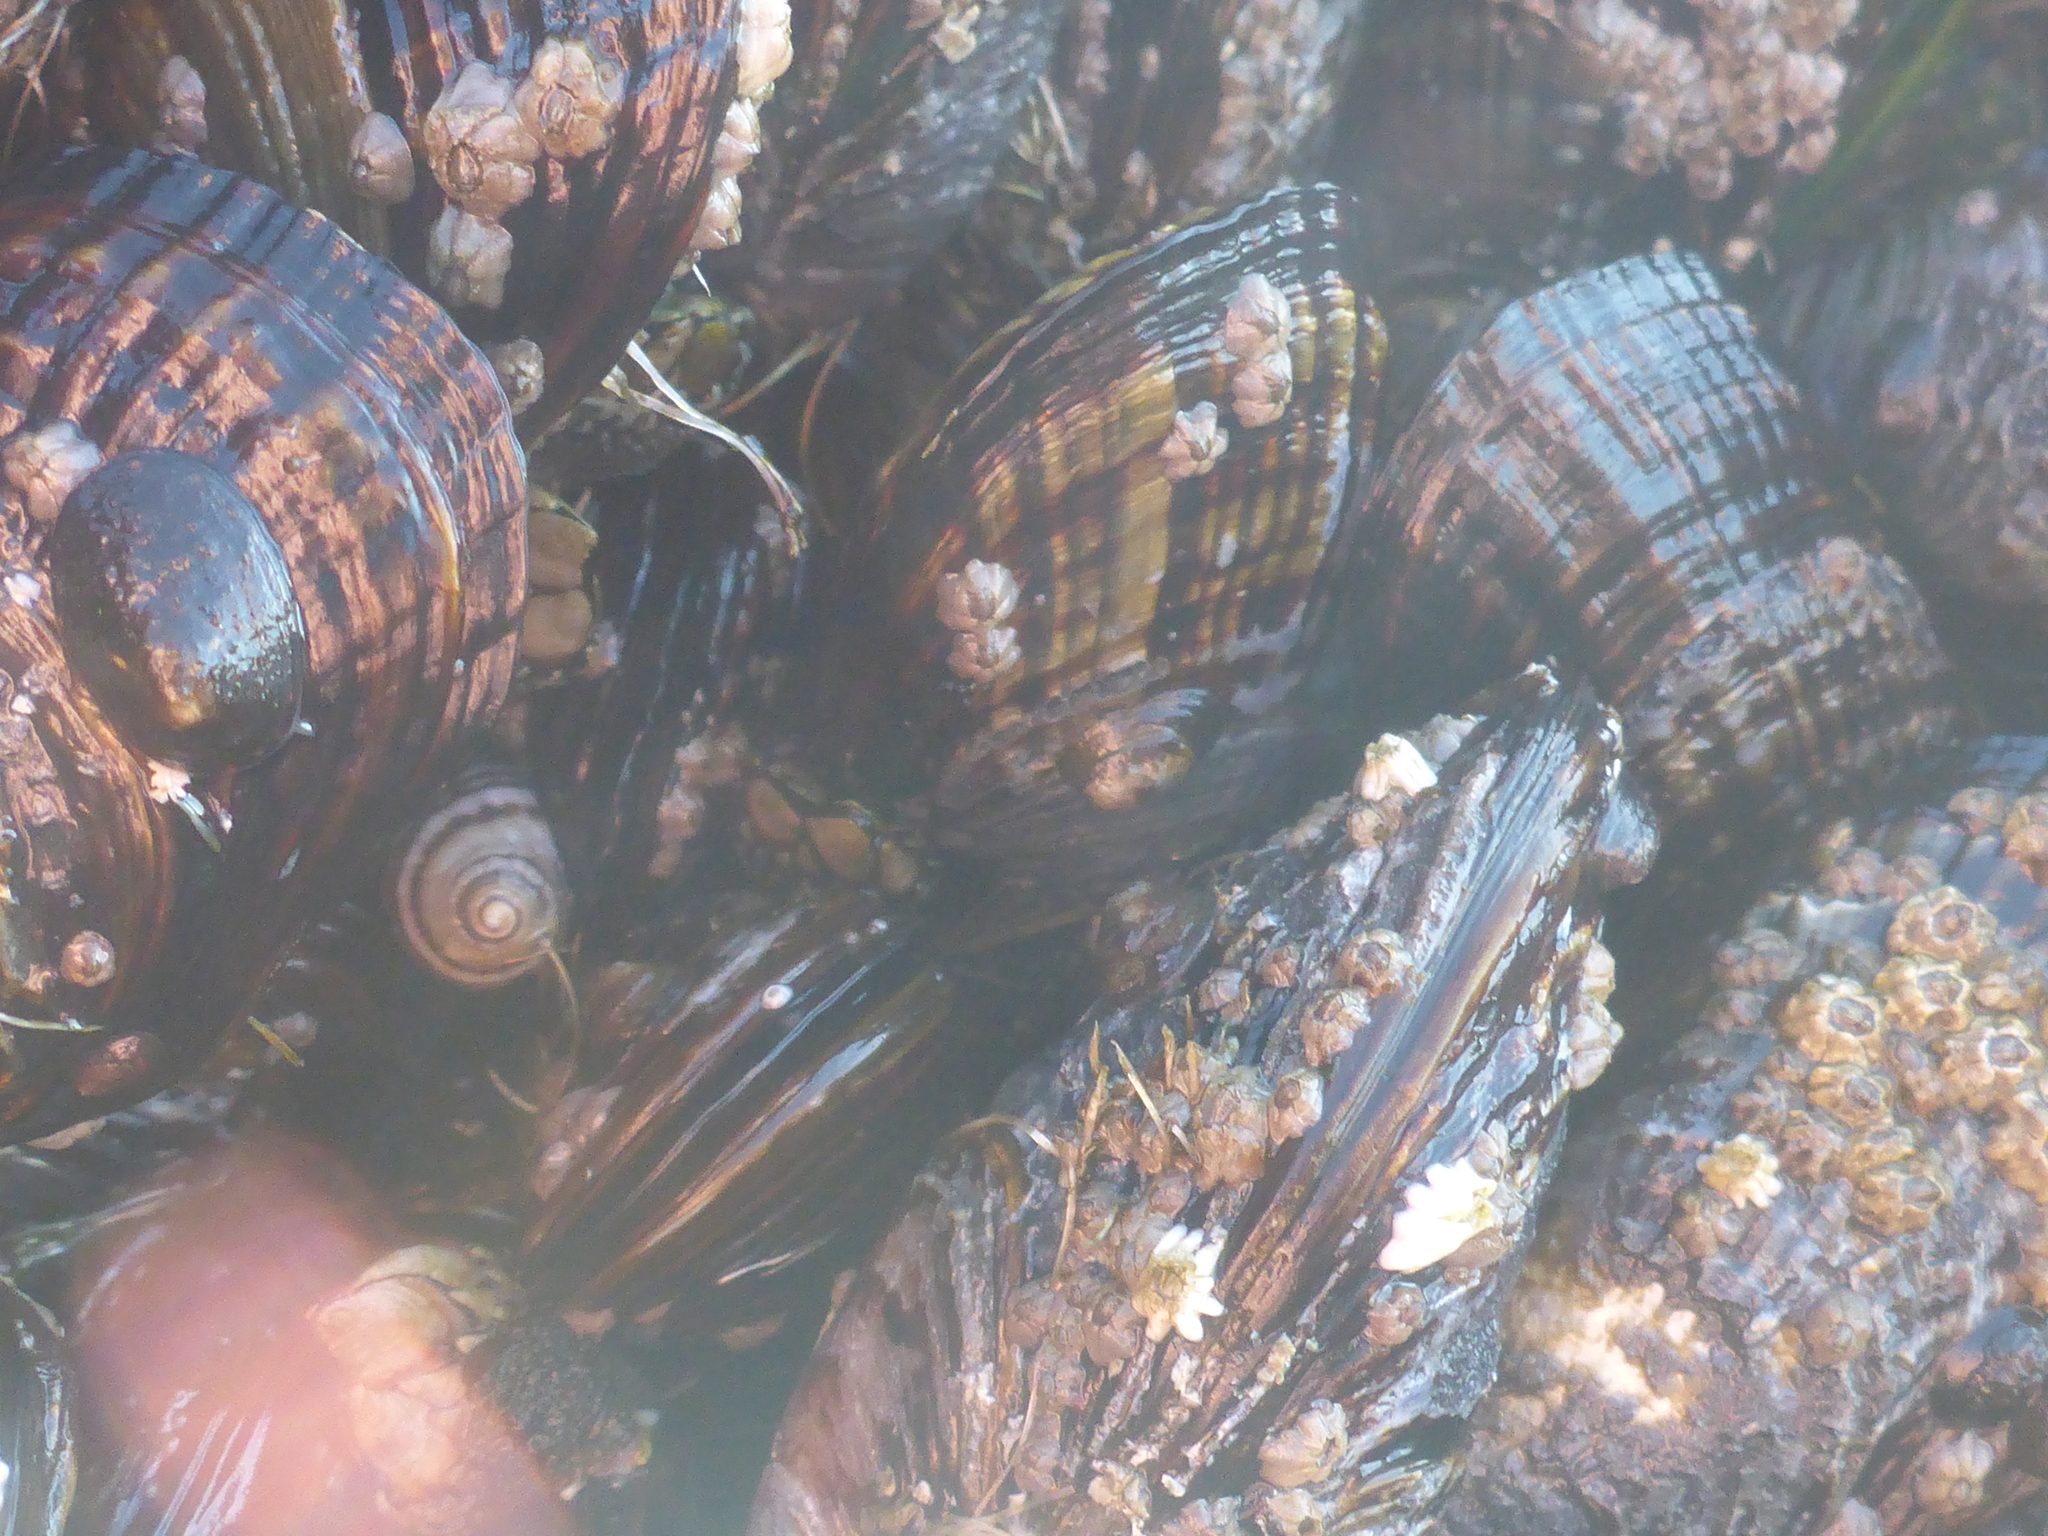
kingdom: Animalia
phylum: Mollusca
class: Bivalvia
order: Mytilida
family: Mytilidae
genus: Mytilus
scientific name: Mytilus californianus
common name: California mussel
